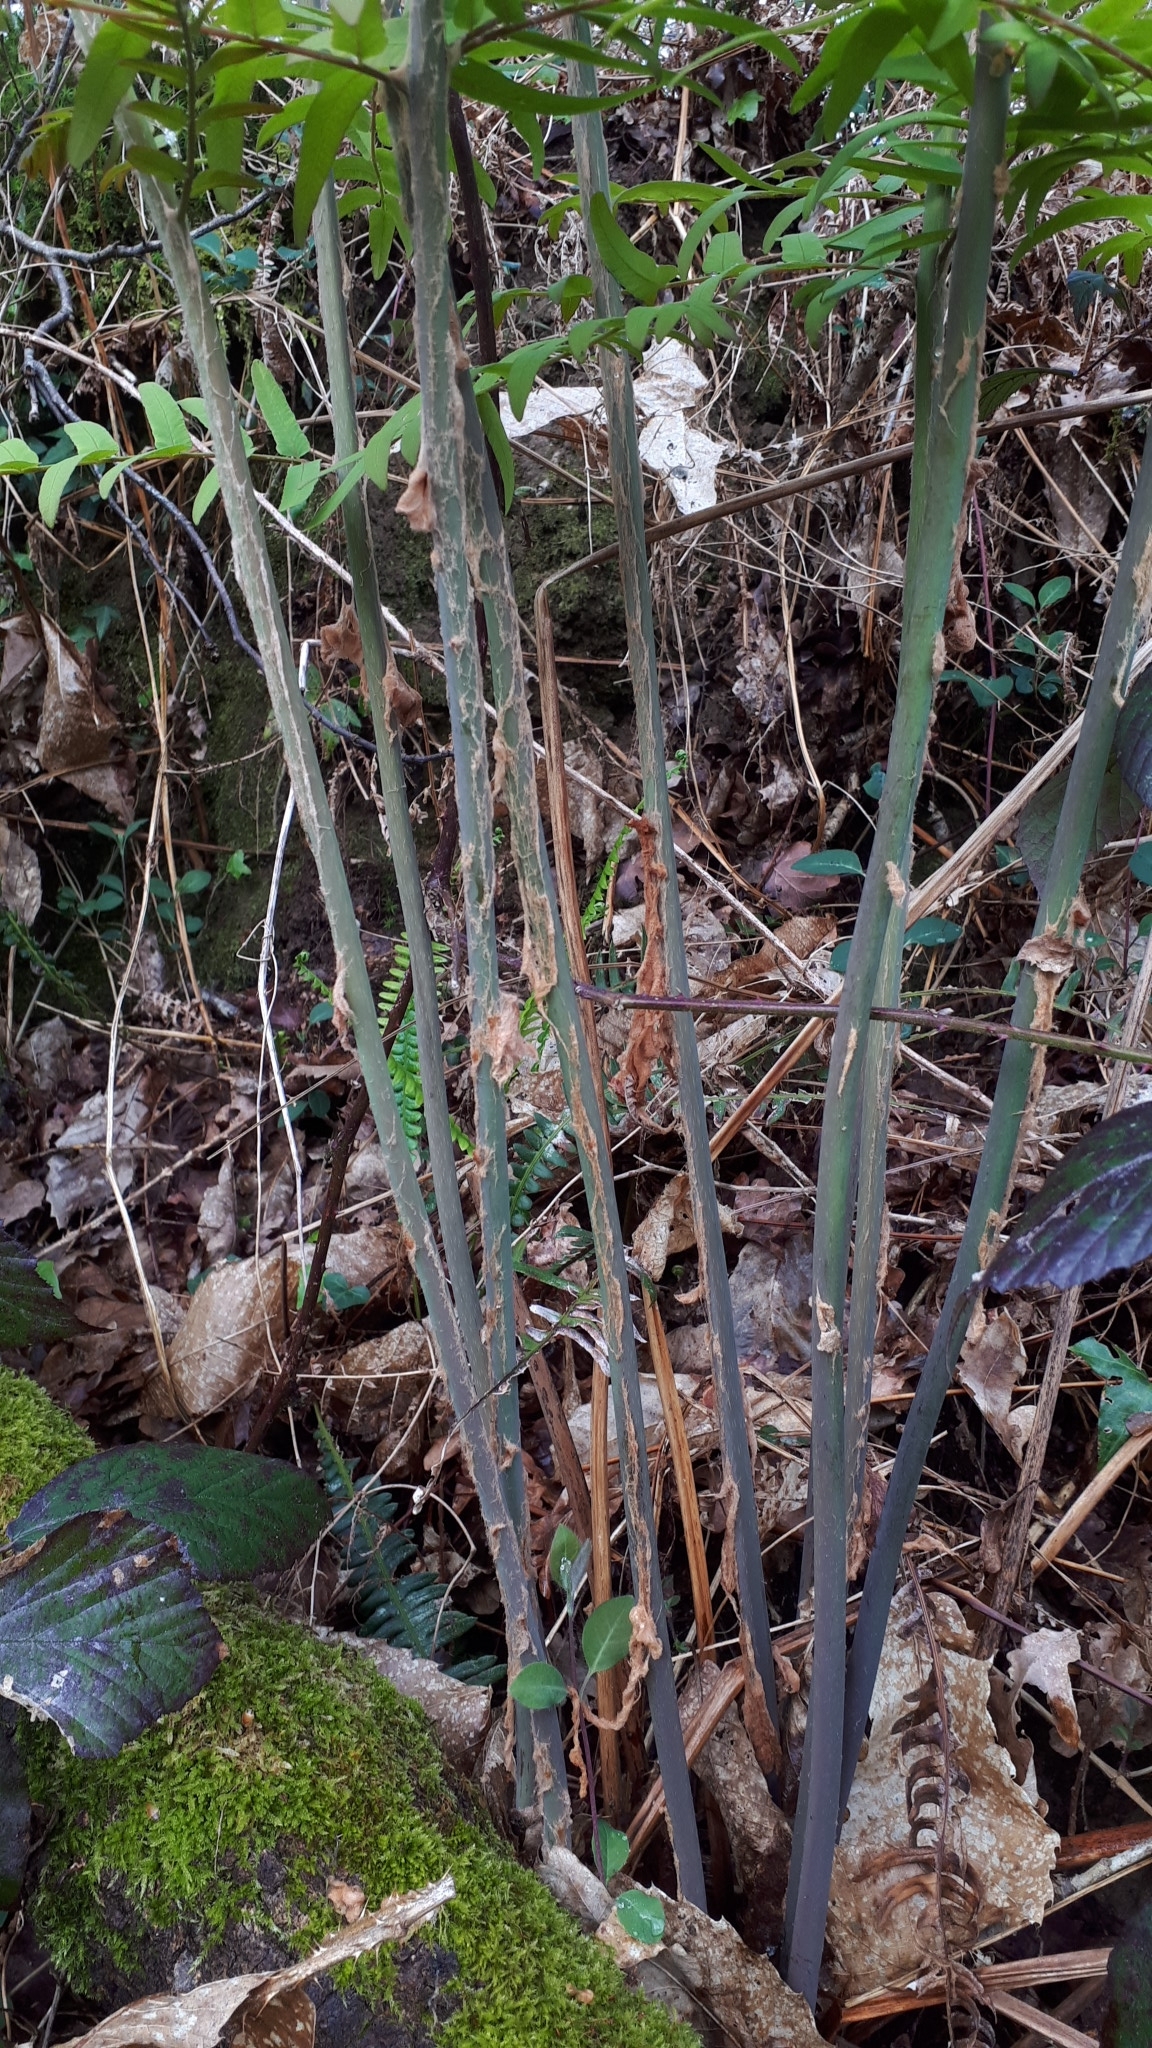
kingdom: Plantae
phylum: Tracheophyta
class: Polypodiopsida
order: Osmundales
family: Osmundaceae
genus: Osmunda
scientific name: Osmunda regalis
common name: Royal fern
